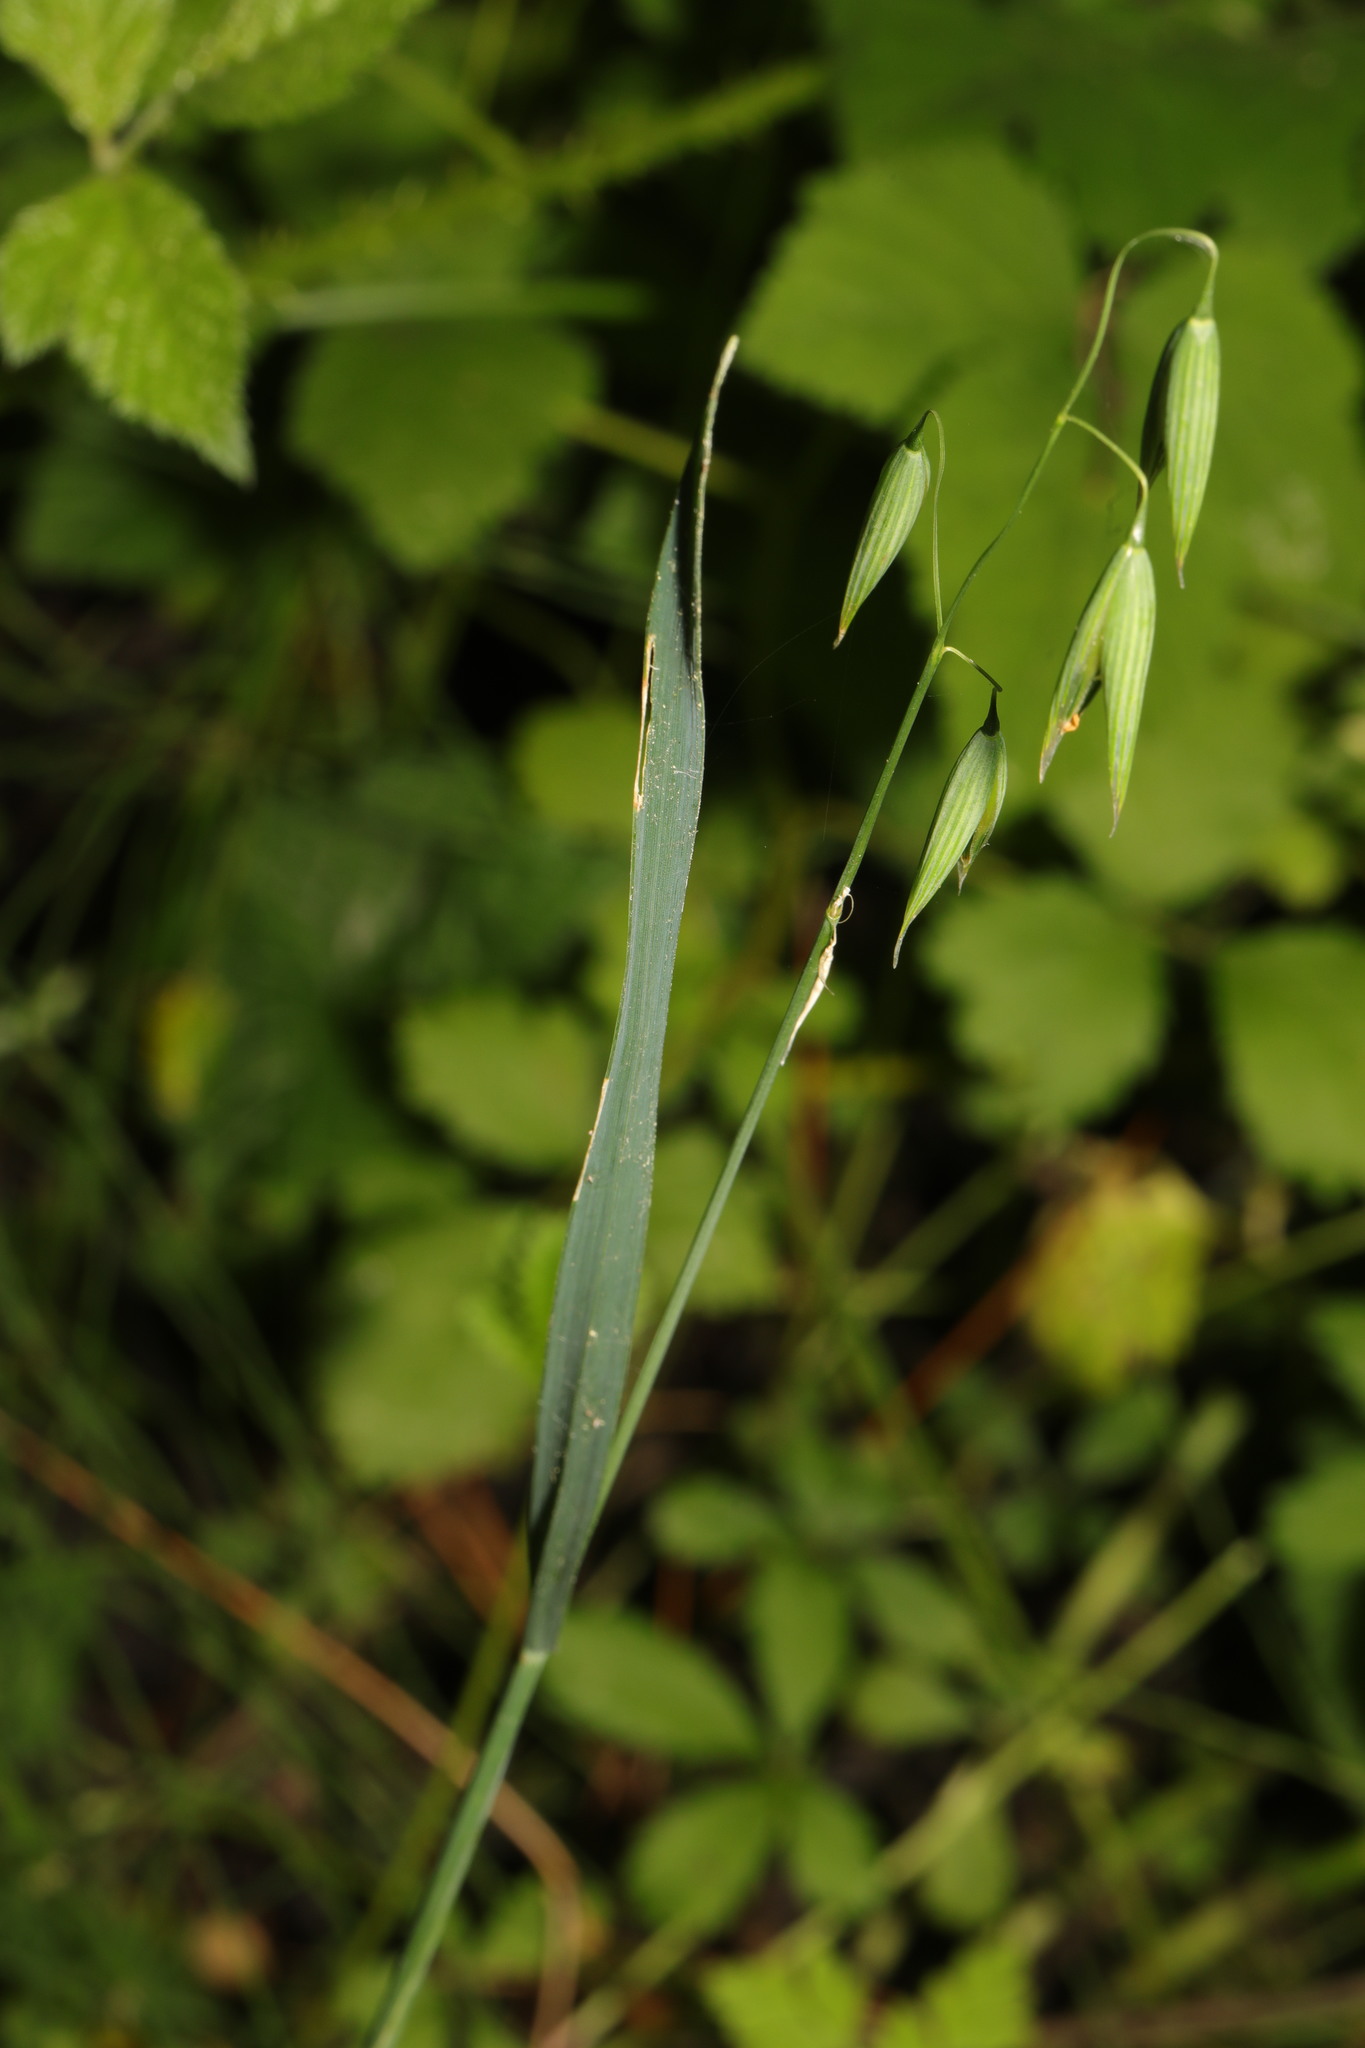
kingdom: Plantae
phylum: Tracheophyta
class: Liliopsida
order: Poales
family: Poaceae
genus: Avena
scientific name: Avena sativa
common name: Oat
